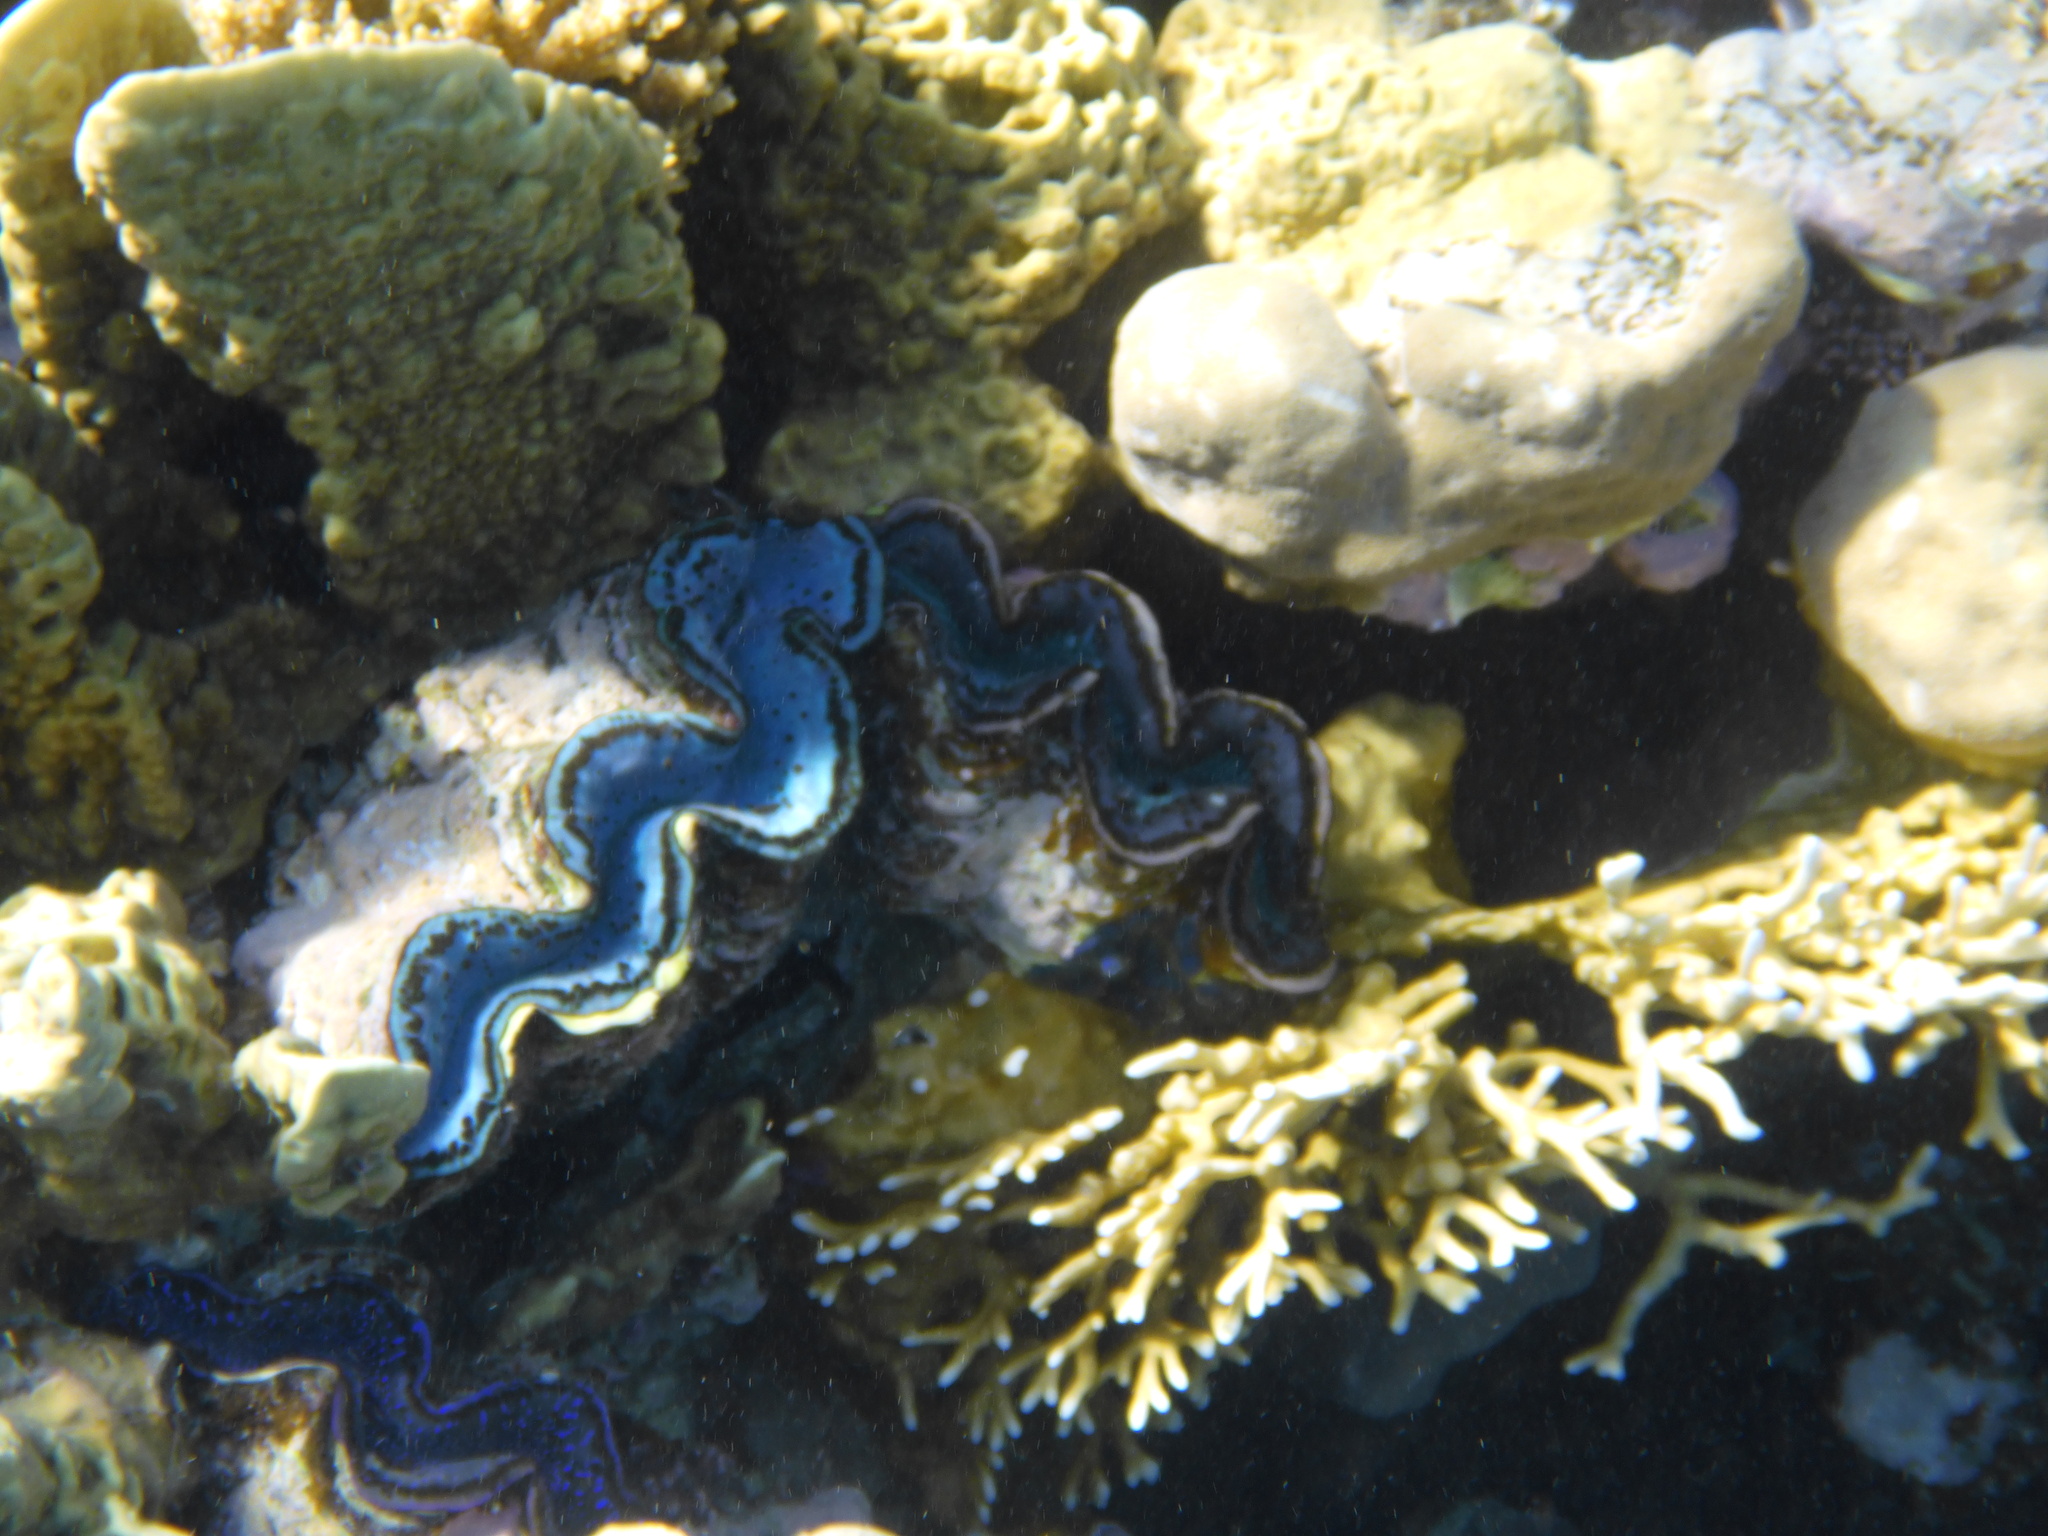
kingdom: Animalia
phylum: Mollusca
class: Bivalvia
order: Cardiida
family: Cardiidae
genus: Tridacna
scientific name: Tridacna maxima
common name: Small giant clam
